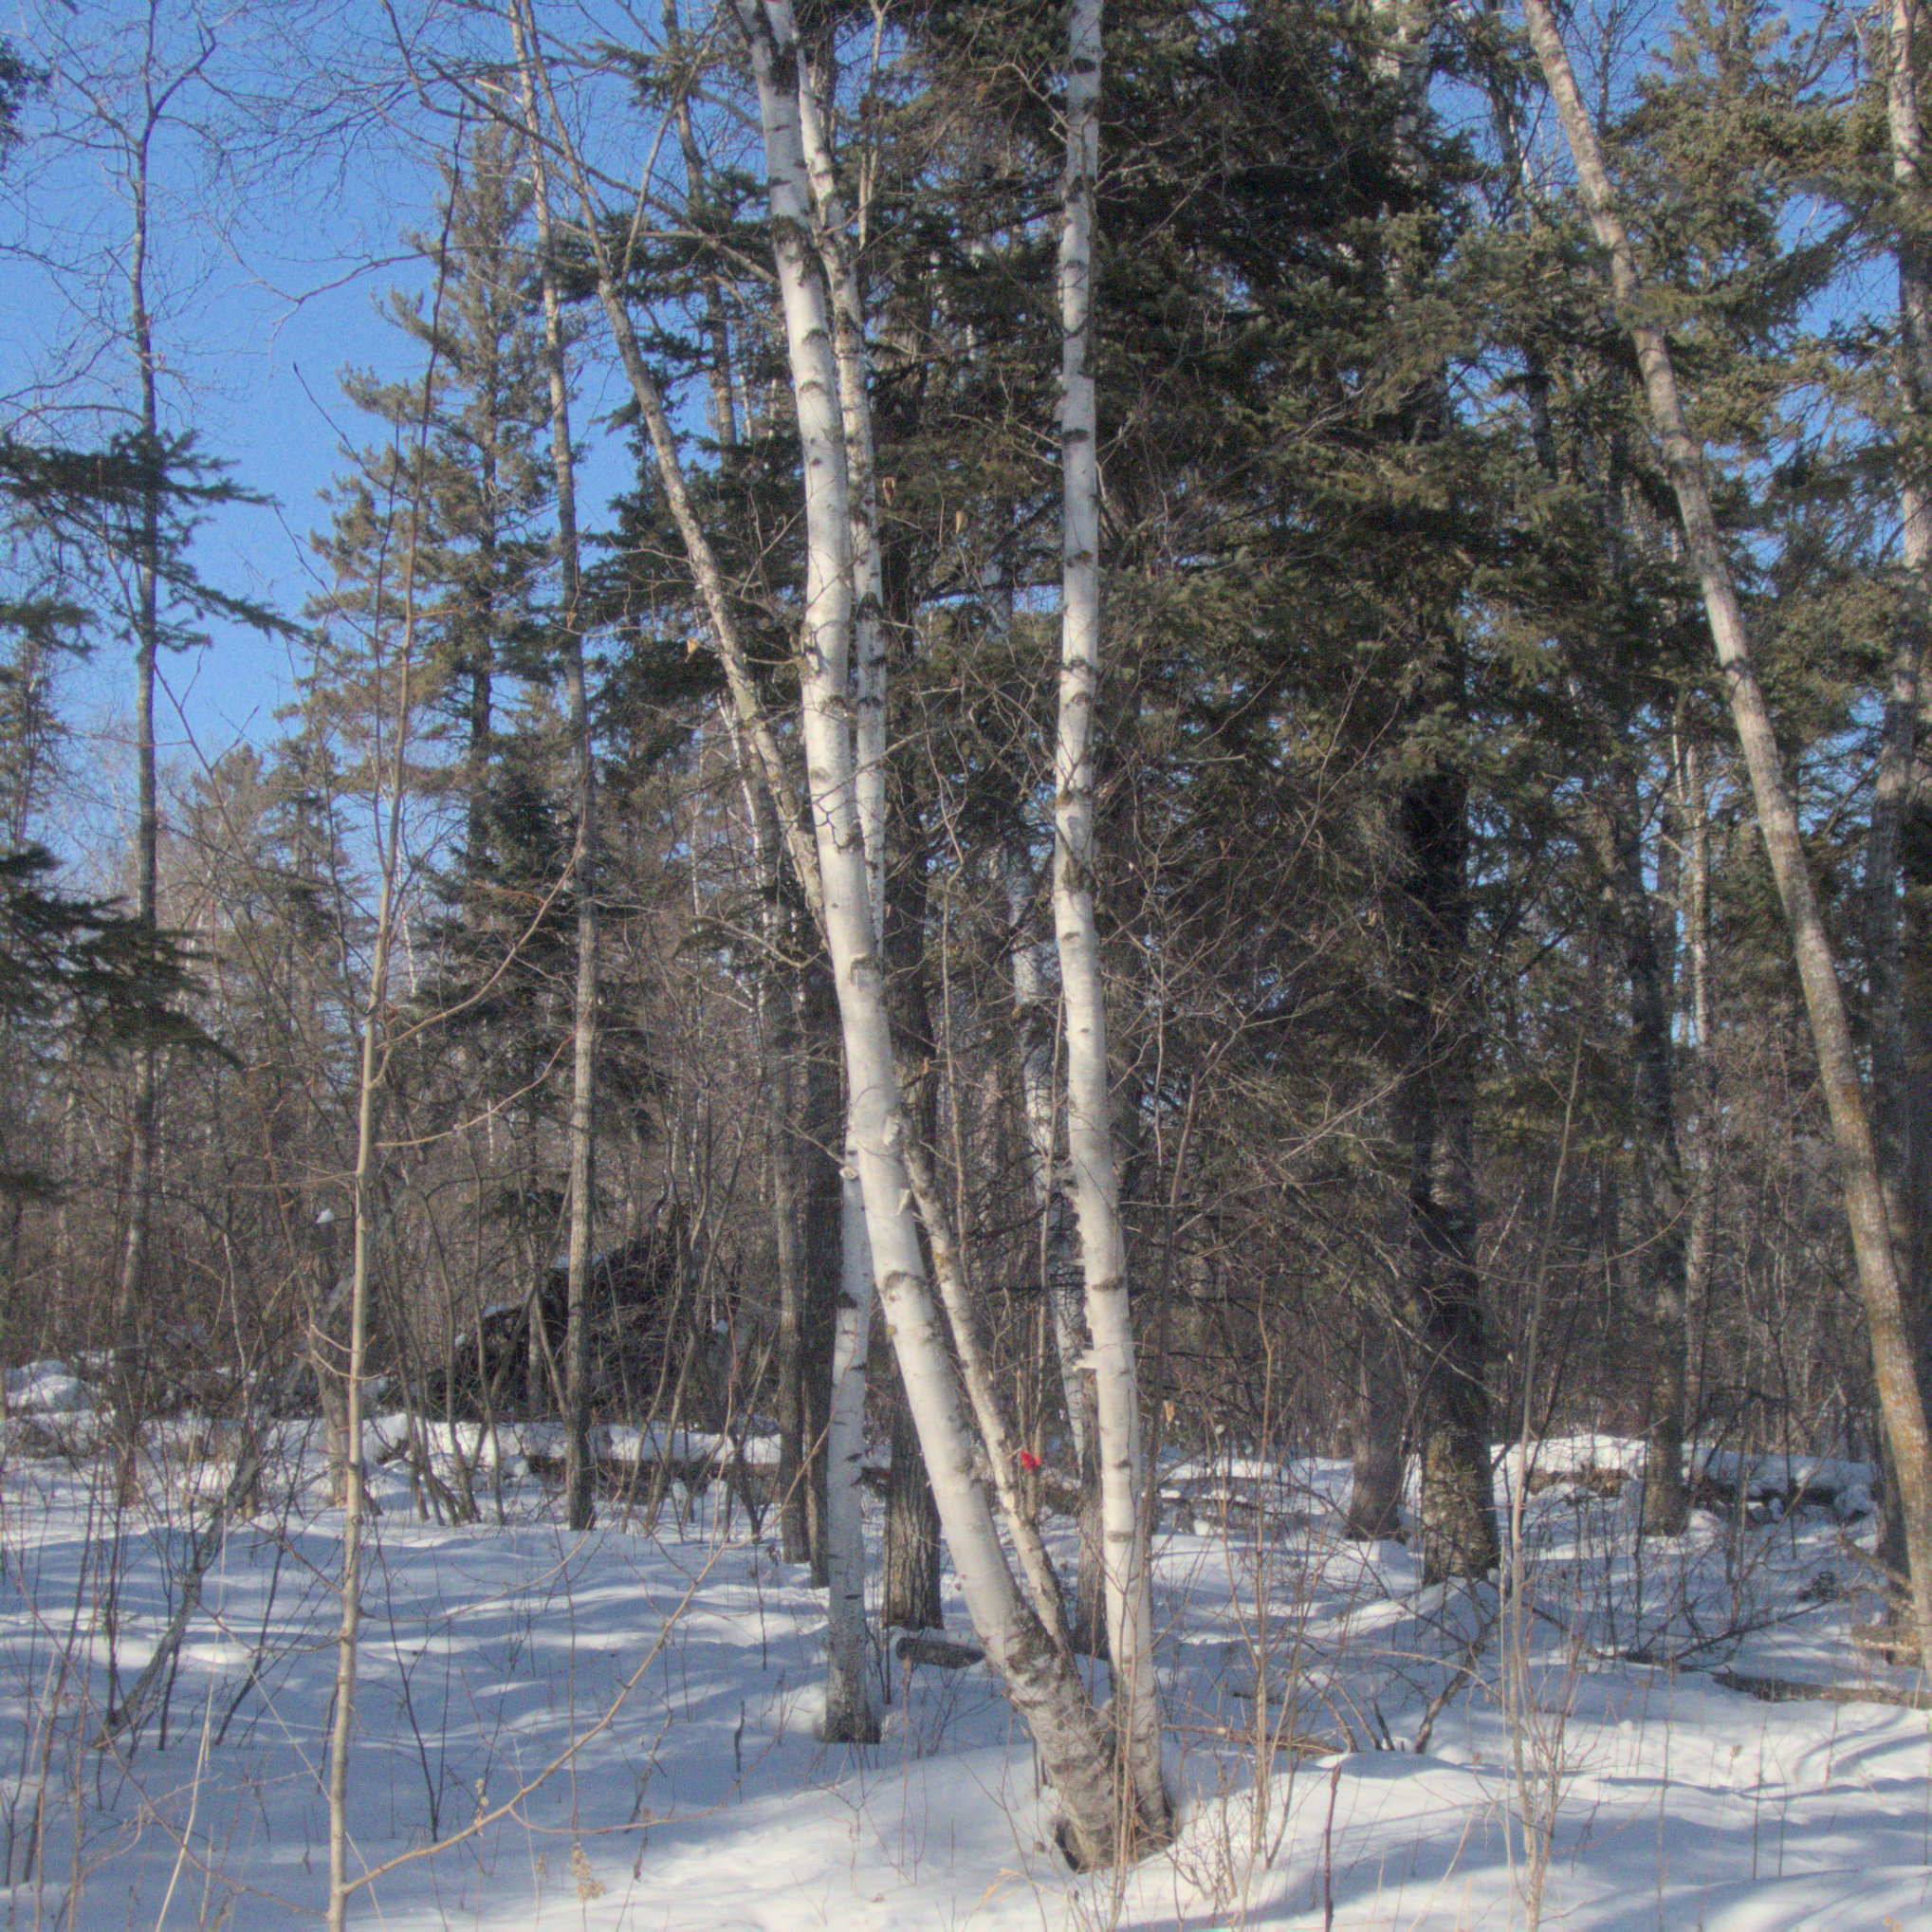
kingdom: Plantae
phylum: Tracheophyta
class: Magnoliopsida
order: Fagales
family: Betulaceae
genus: Betula
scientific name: Betula papyrifera
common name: Paper birch
